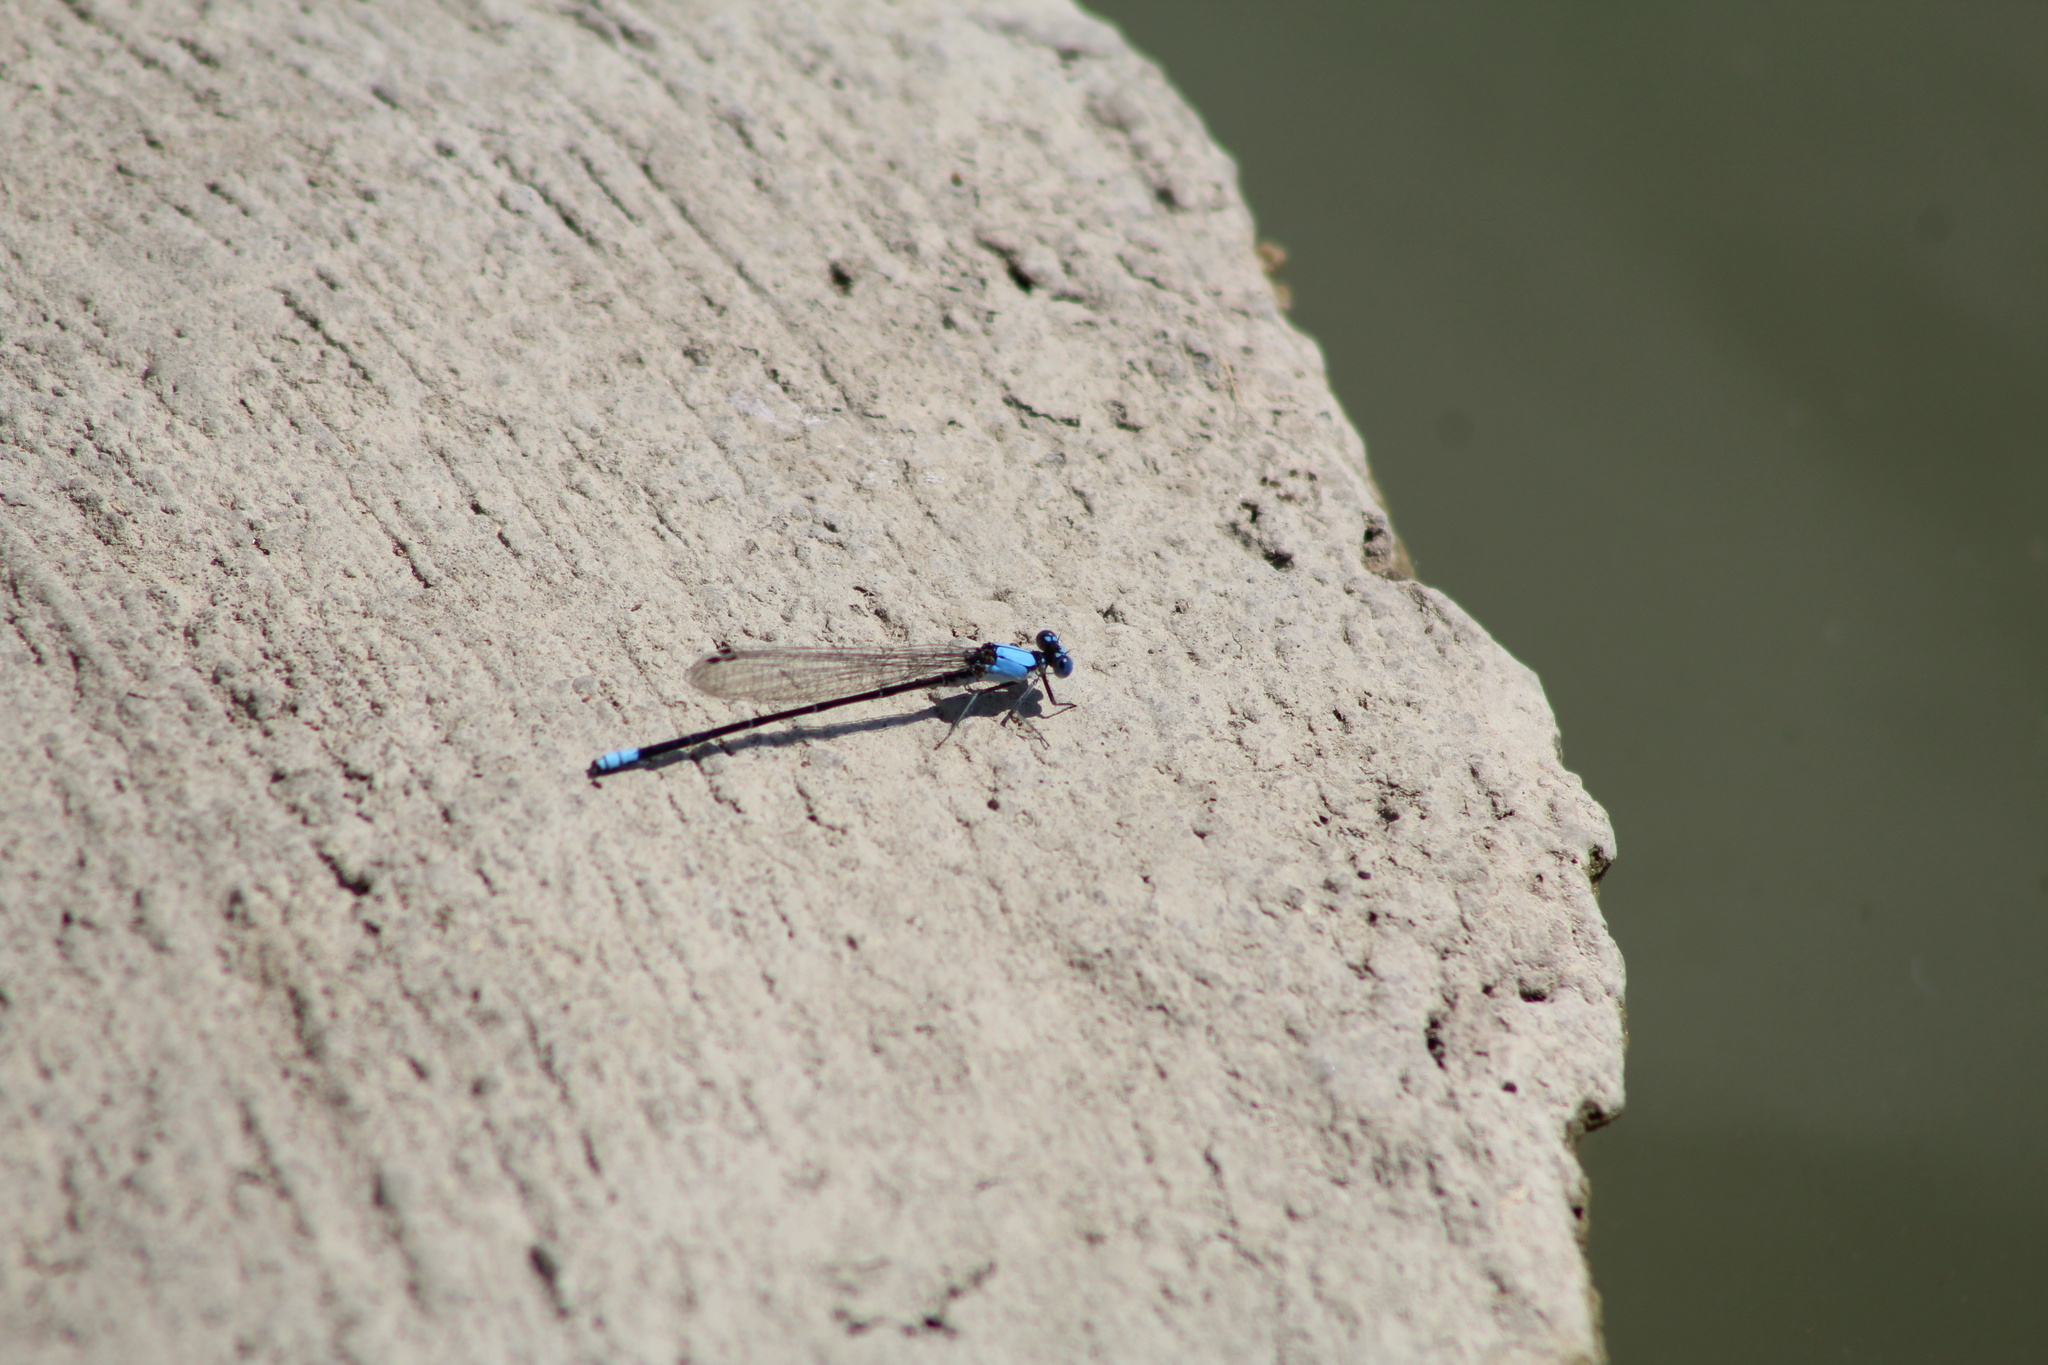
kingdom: Animalia
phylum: Arthropoda
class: Insecta
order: Odonata
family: Coenagrionidae
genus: Argia
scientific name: Argia apicalis
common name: Blue-fronted dancer
